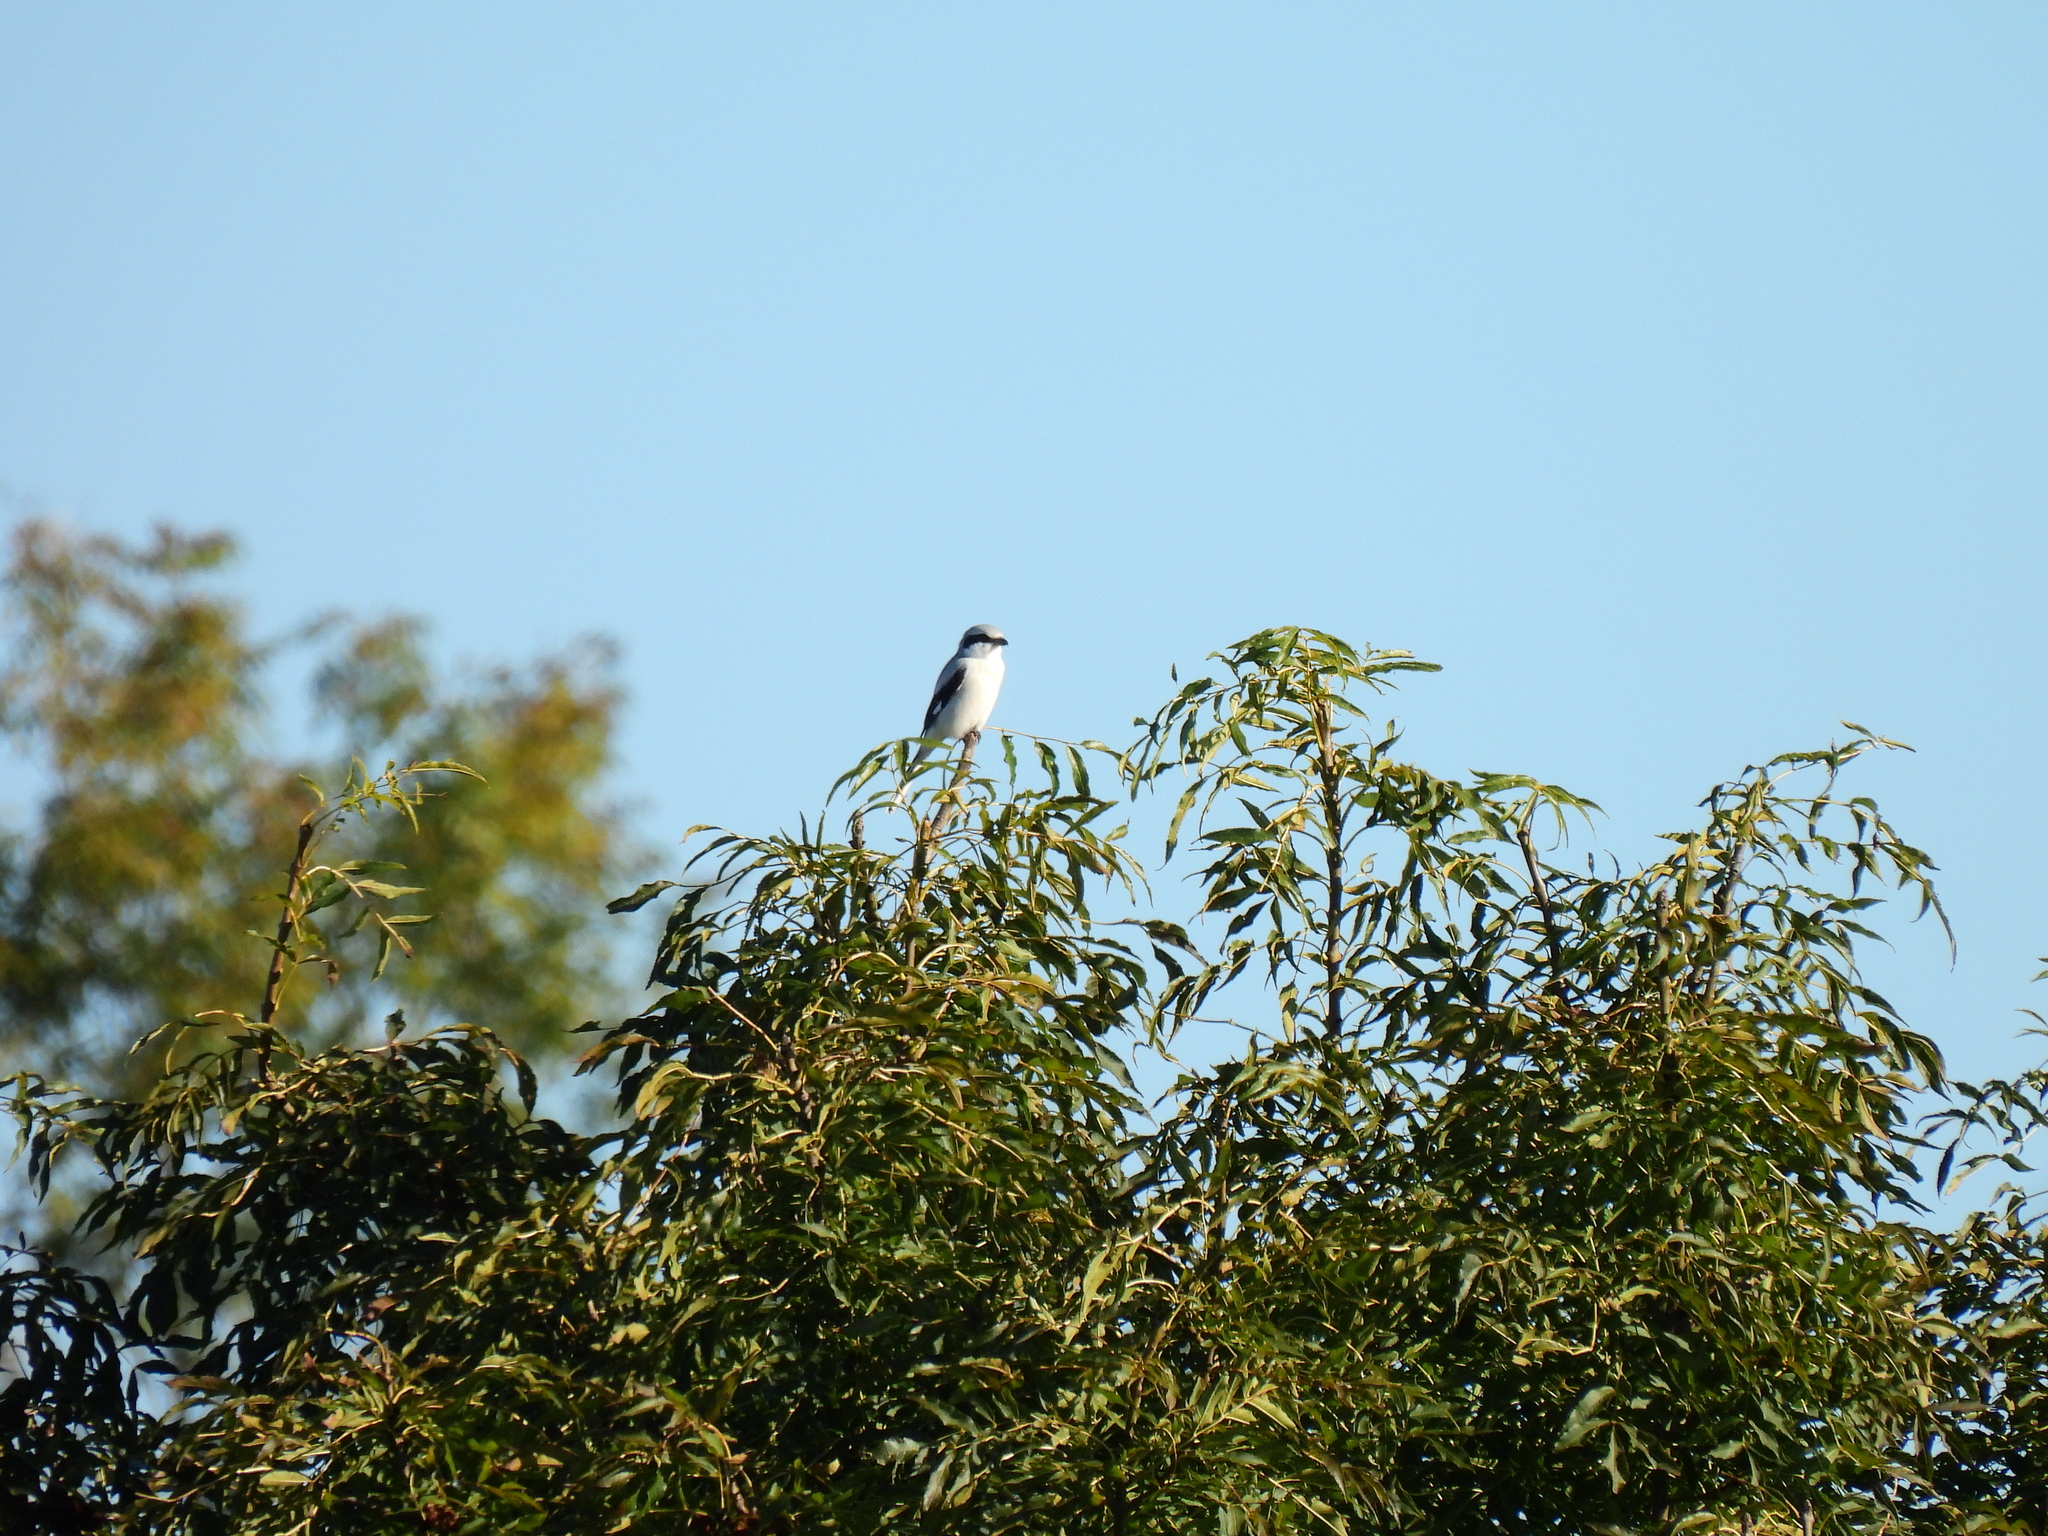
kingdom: Animalia
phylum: Chordata
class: Aves
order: Passeriformes
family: Laniidae
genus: Lanius
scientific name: Lanius excubitor
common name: Great grey shrike
